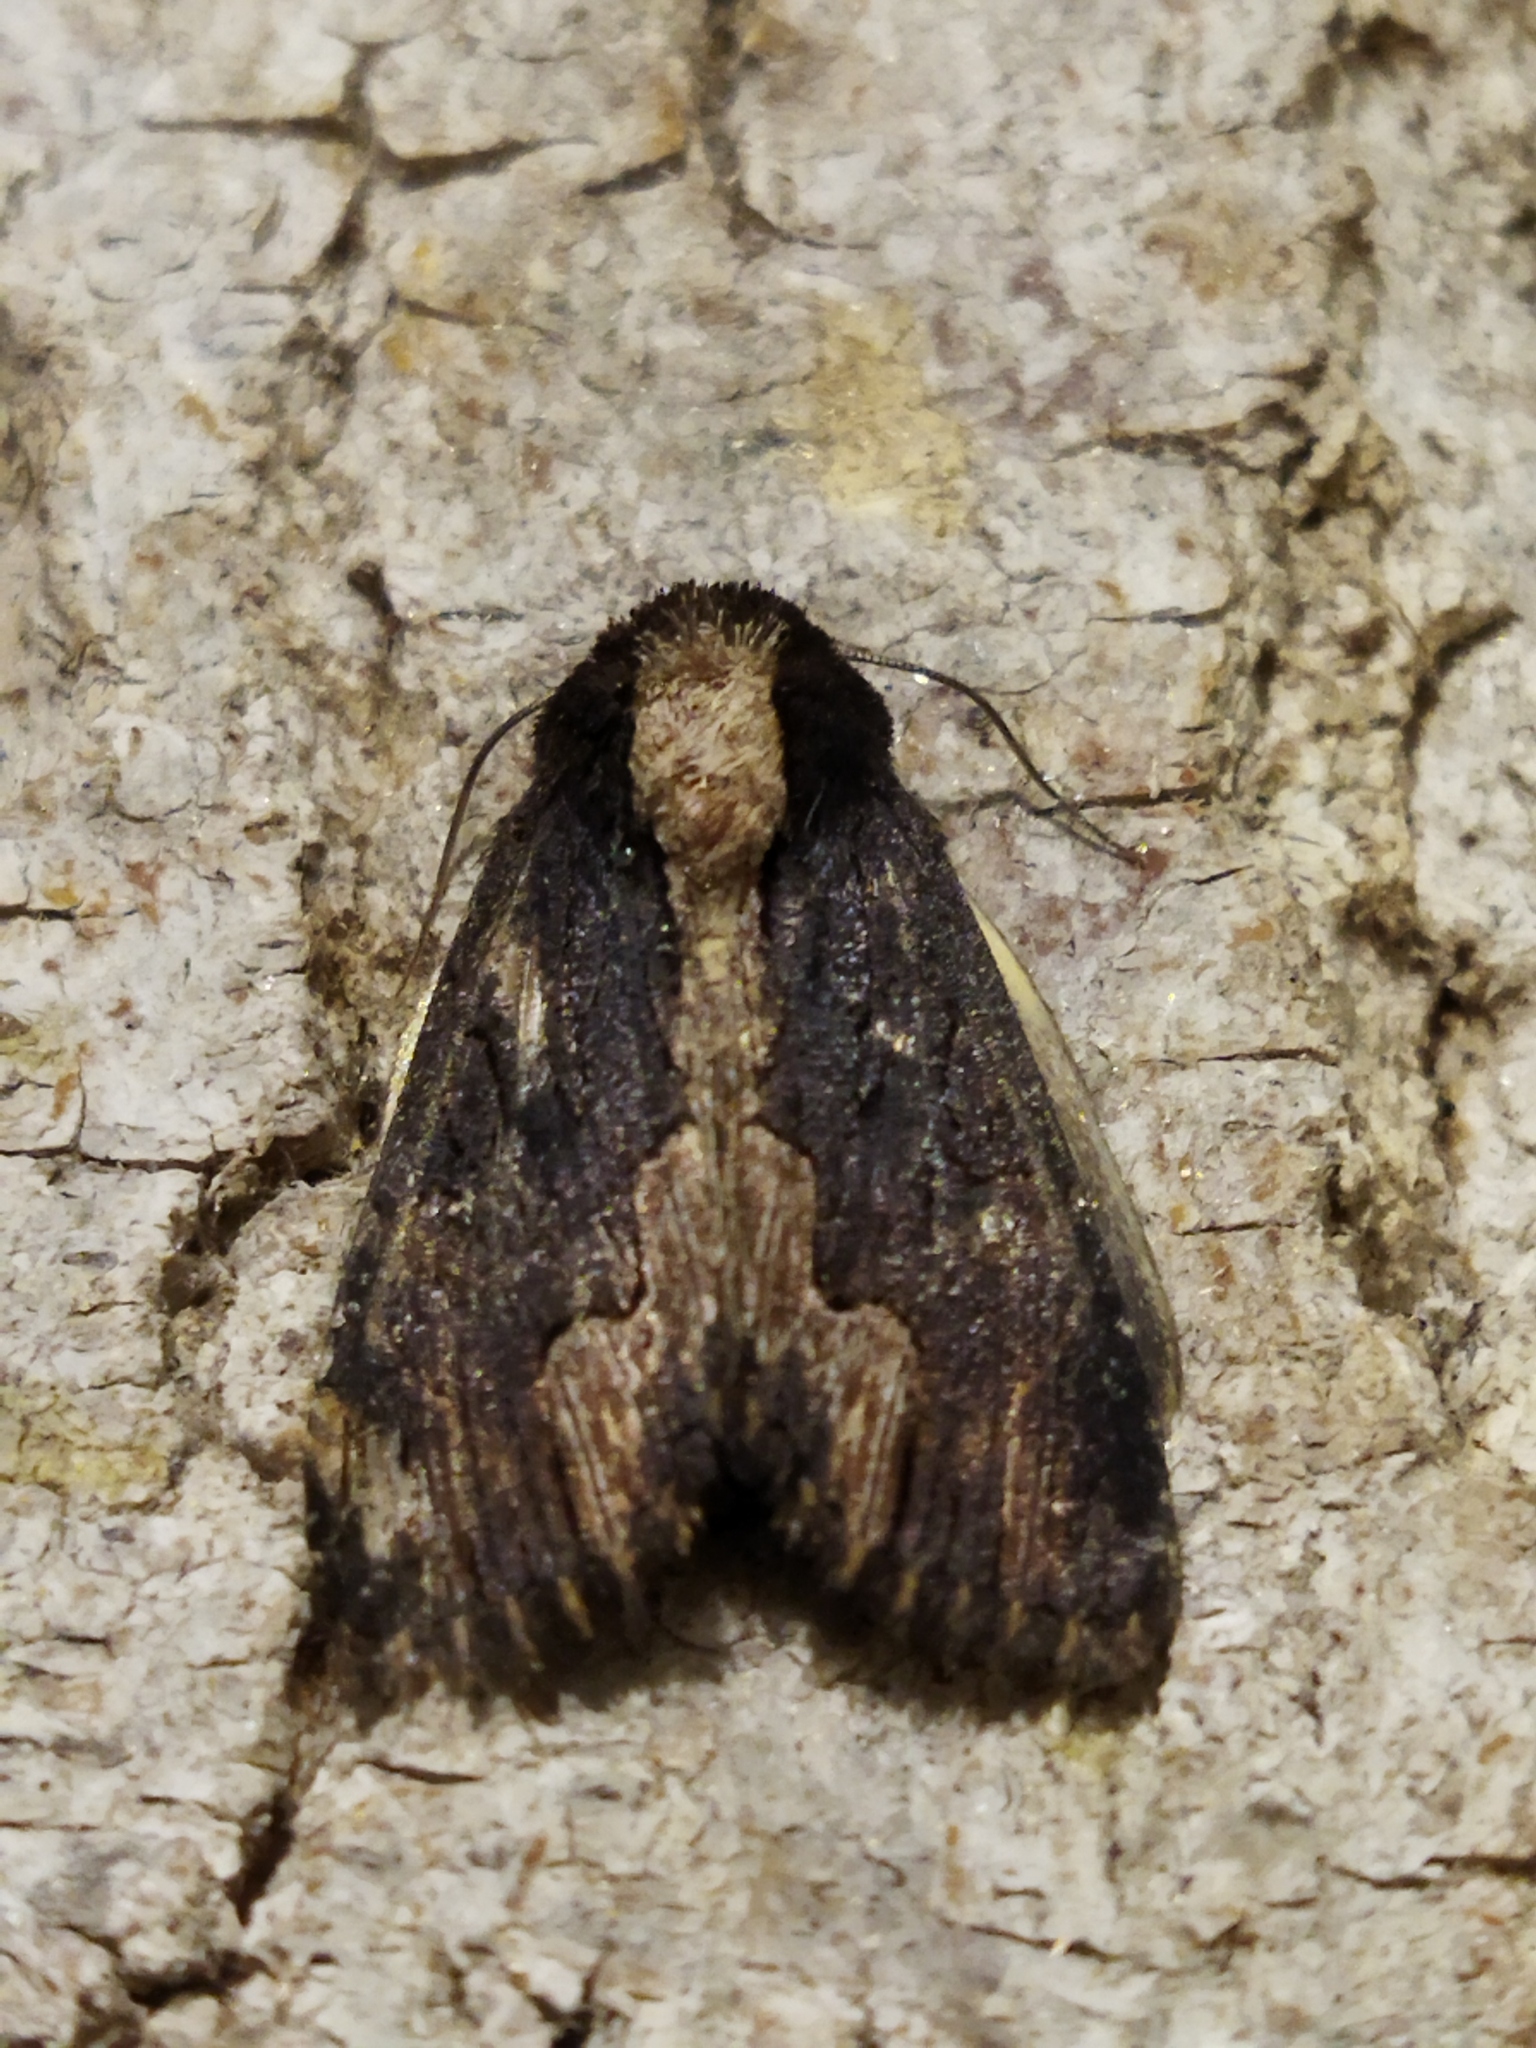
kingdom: Animalia
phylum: Arthropoda
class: Insecta
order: Lepidoptera
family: Noctuidae
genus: Dypterygia
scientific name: Dypterygia scabriuscula
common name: Bird's wing
